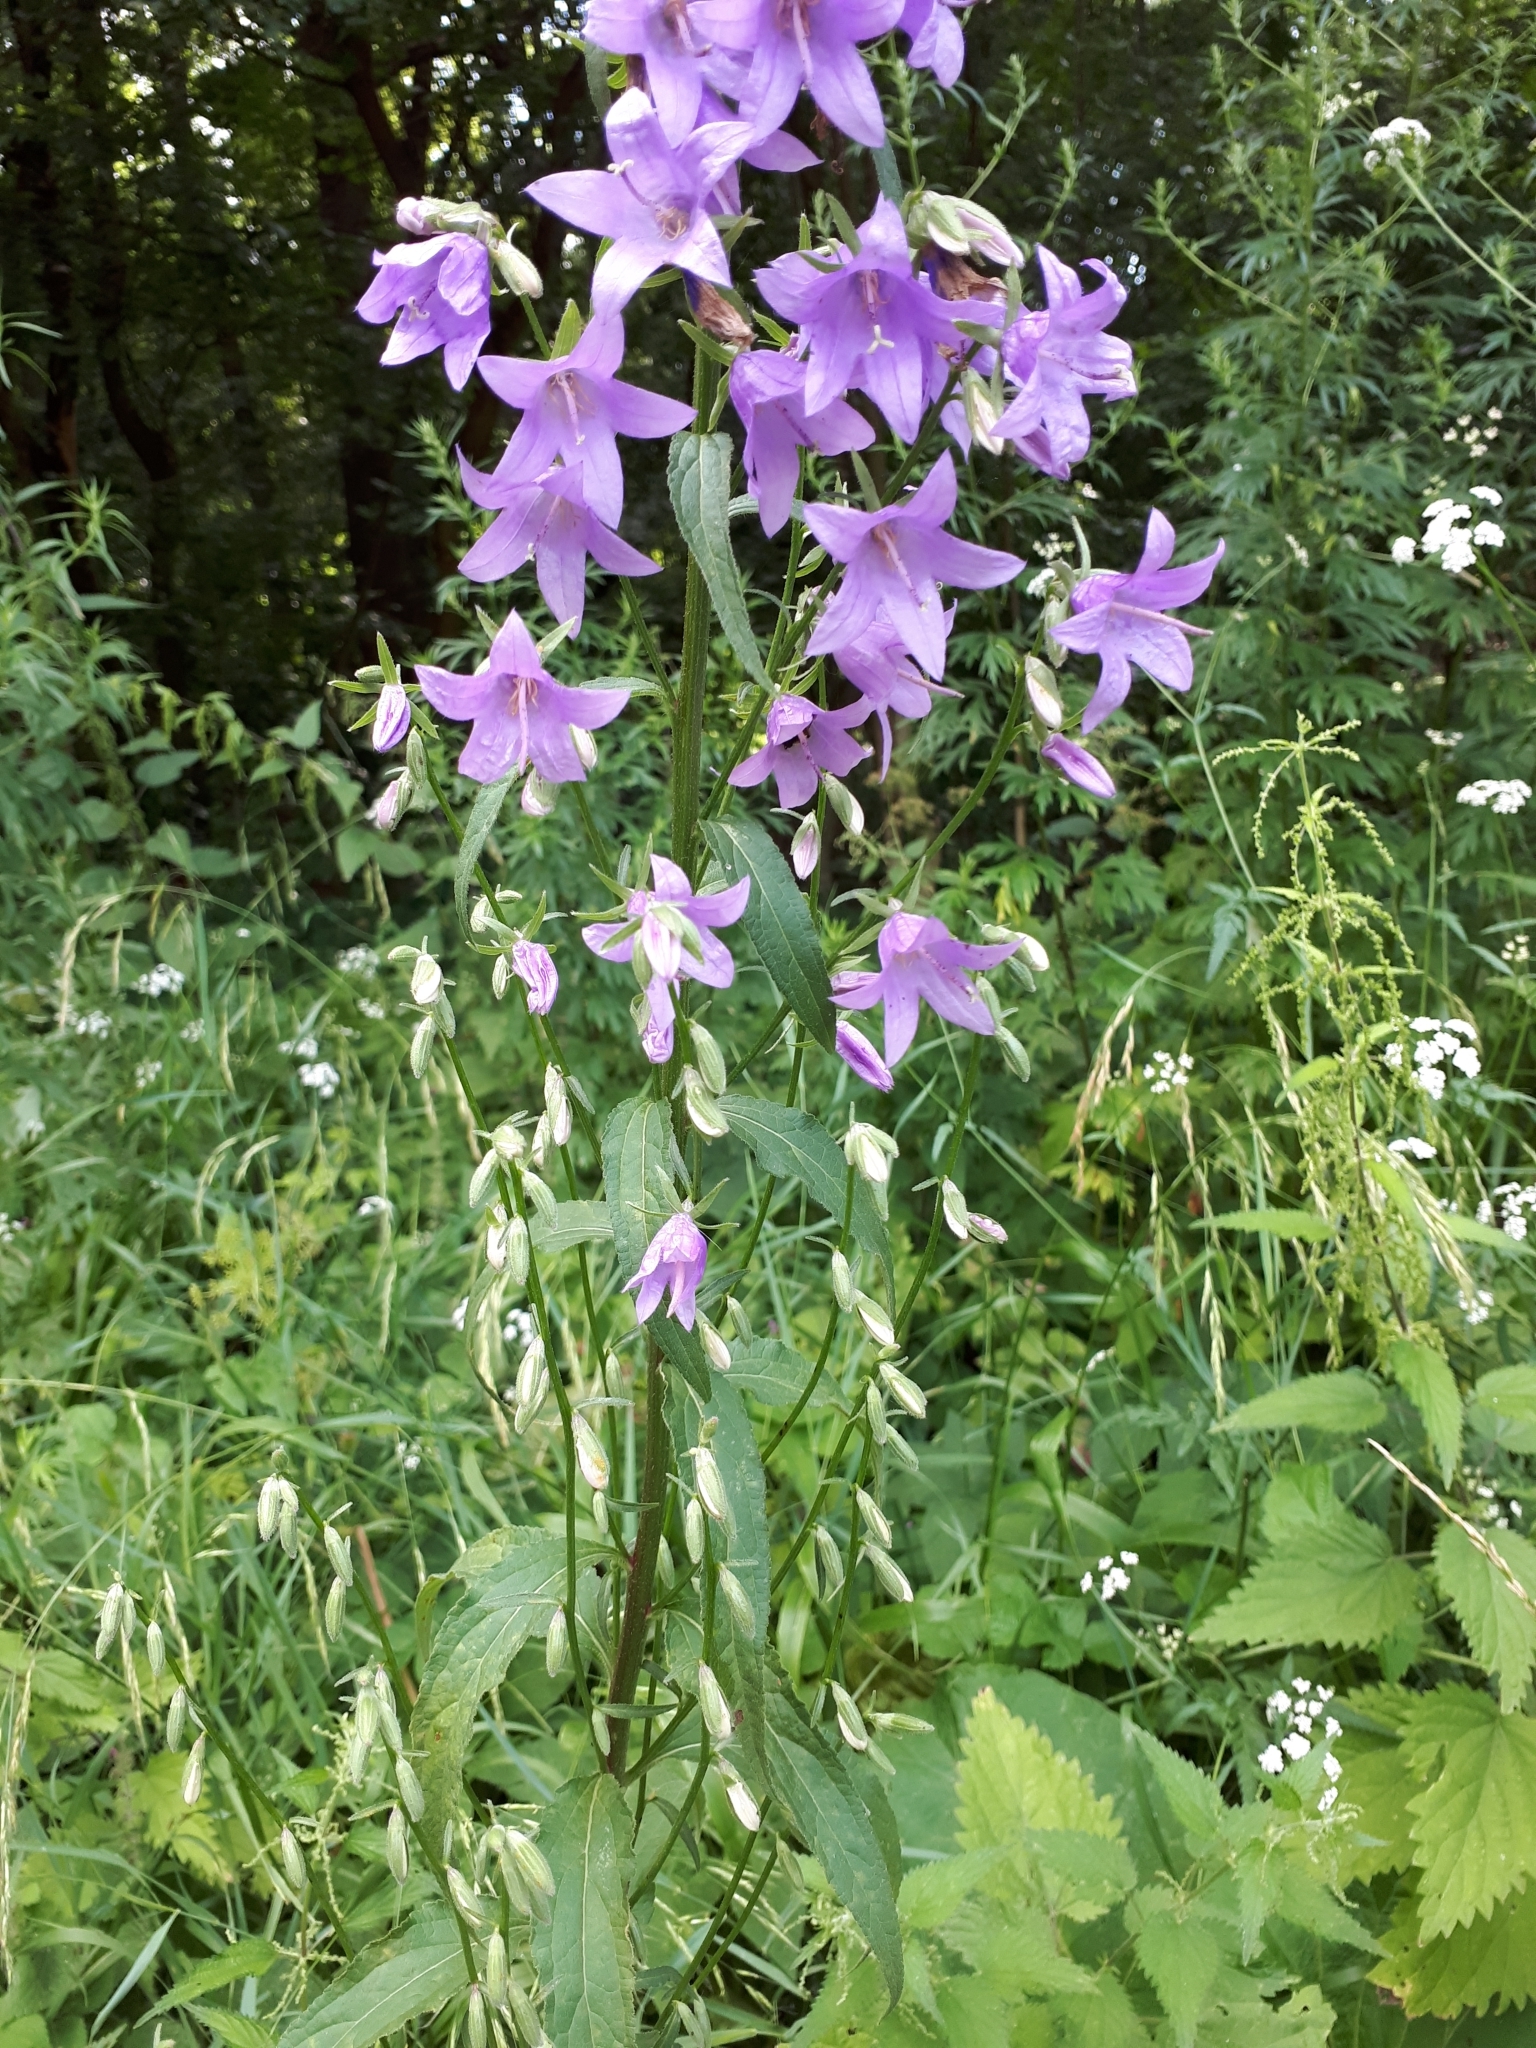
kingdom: Plantae
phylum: Tracheophyta
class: Magnoliopsida
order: Asterales
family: Campanulaceae
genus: Campanula
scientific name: Campanula rapunculoides
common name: Creeping bellflower
